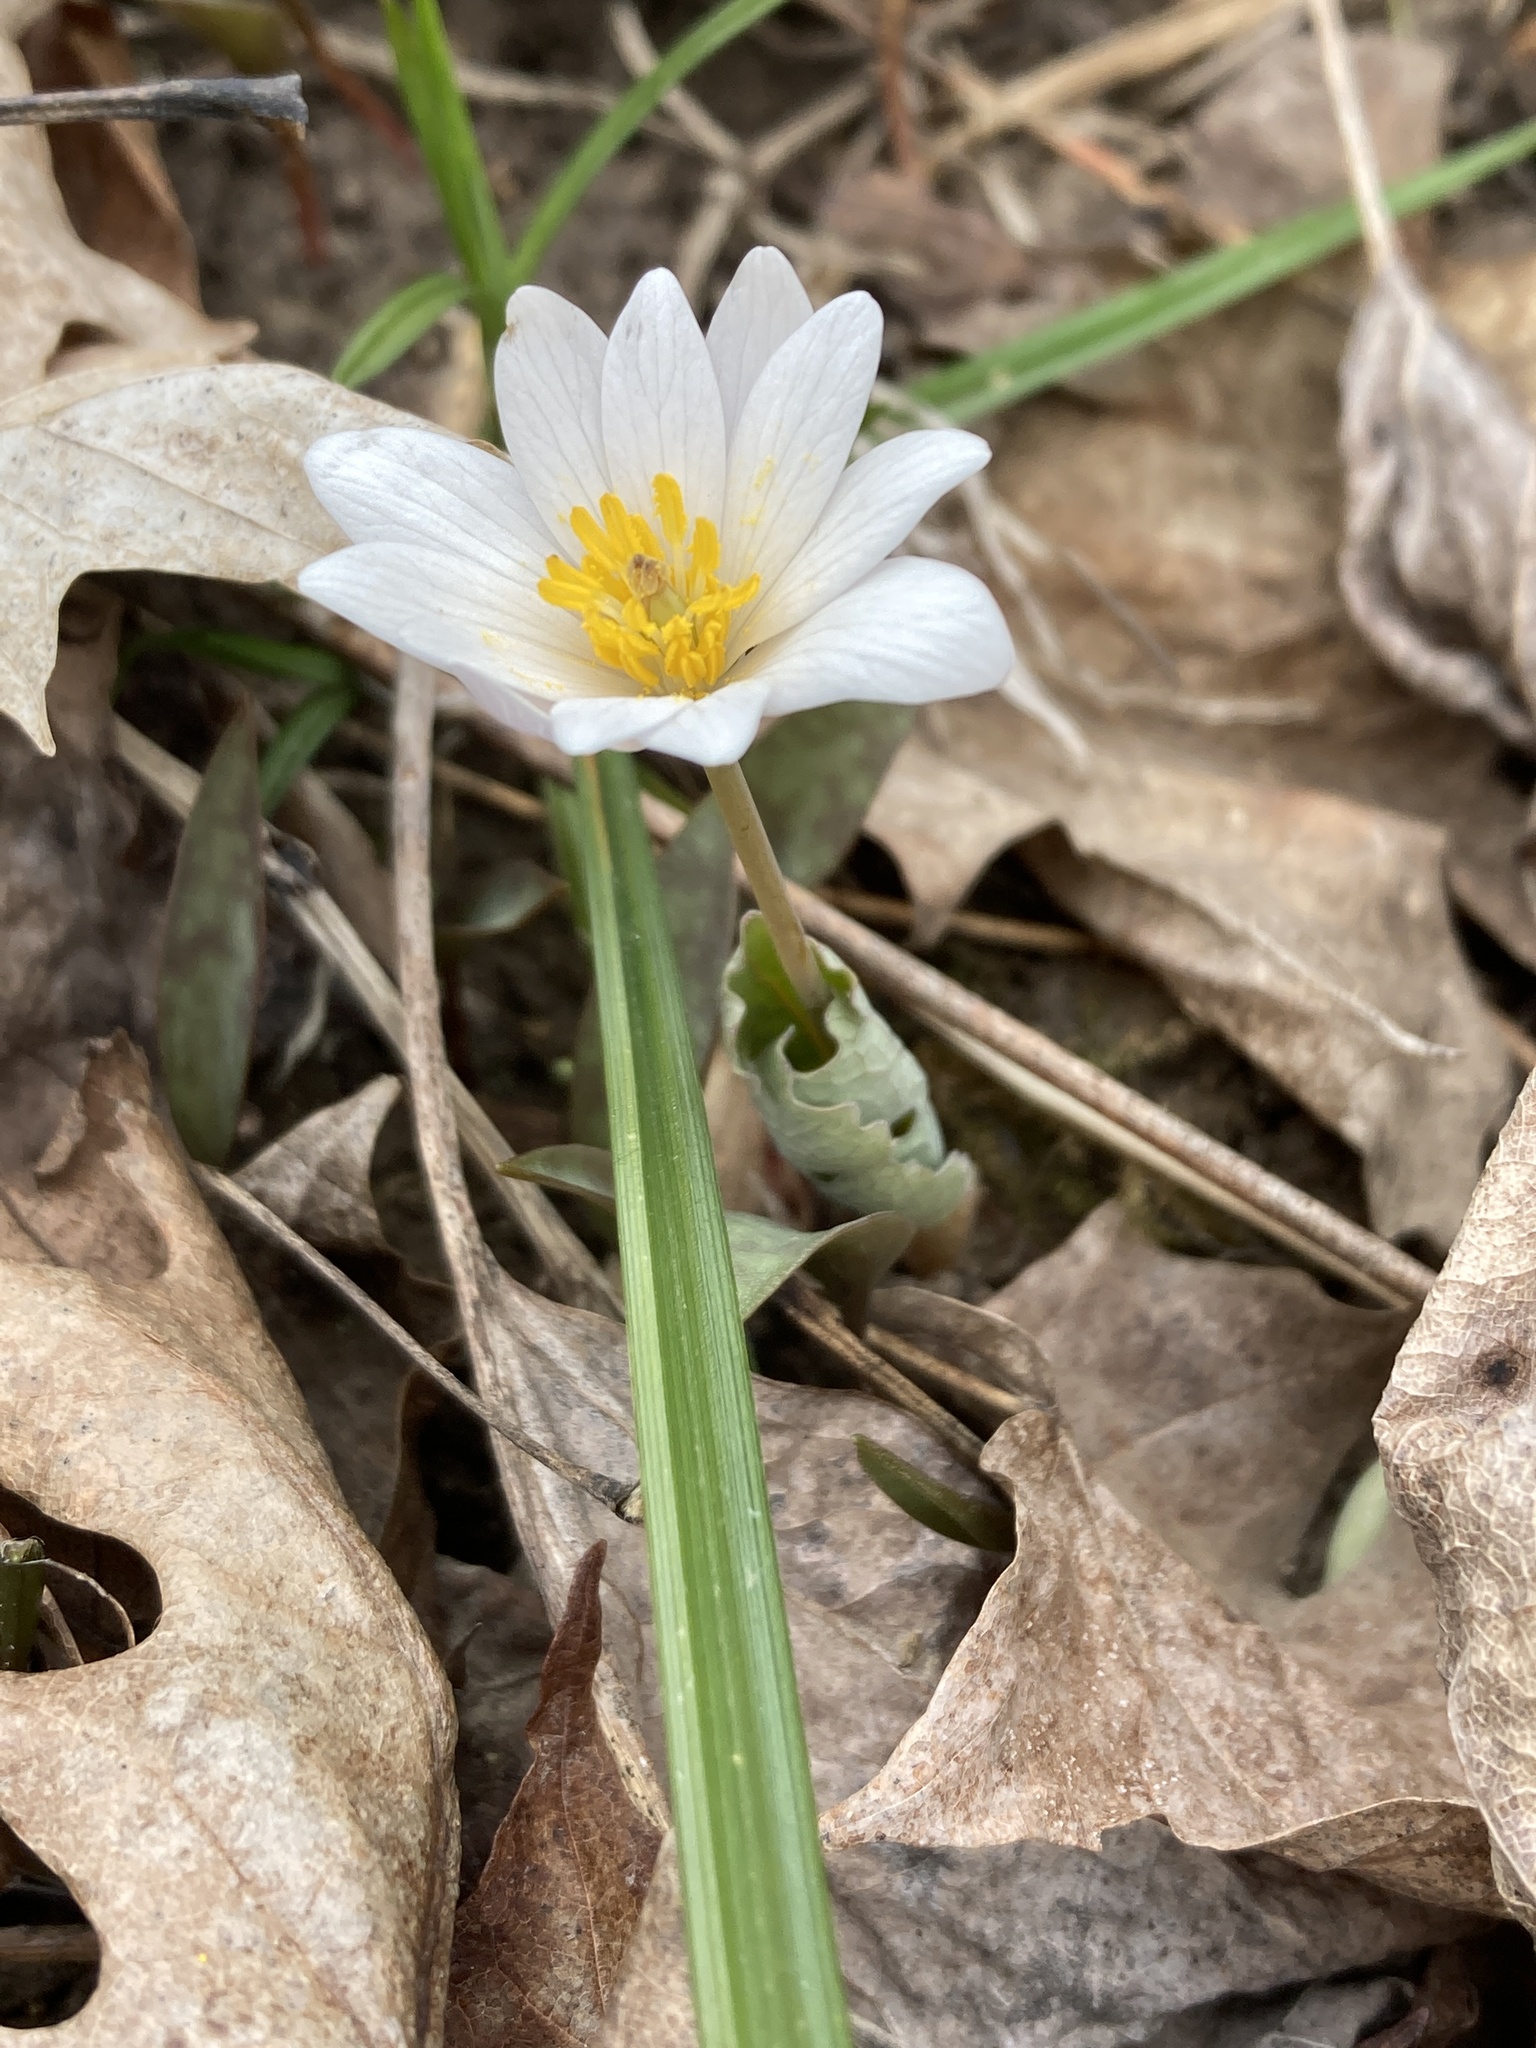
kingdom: Plantae
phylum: Tracheophyta
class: Magnoliopsida
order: Ranunculales
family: Papaveraceae
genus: Sanguinaria
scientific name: Sanguinaria canadensis
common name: Bloodroot
